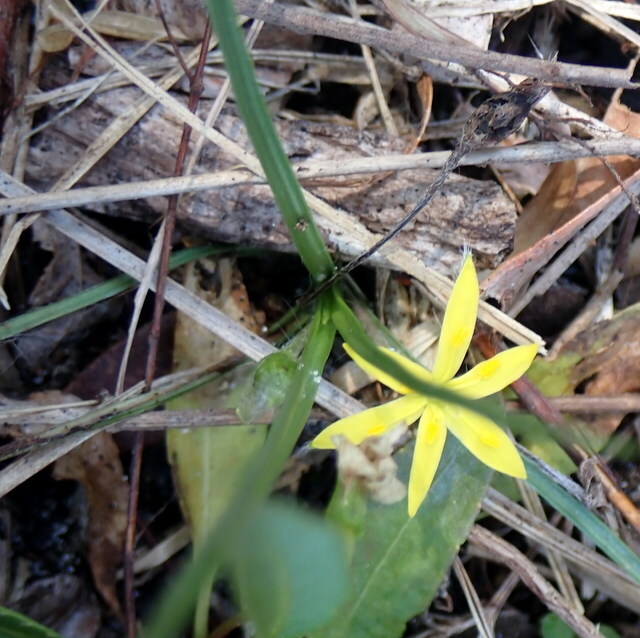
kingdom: Plantae
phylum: Tracheophyta
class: Liliopsida
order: Asparagales
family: Hypoxidaceae
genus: Hypoxis
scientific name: Hypoxis curtissii
